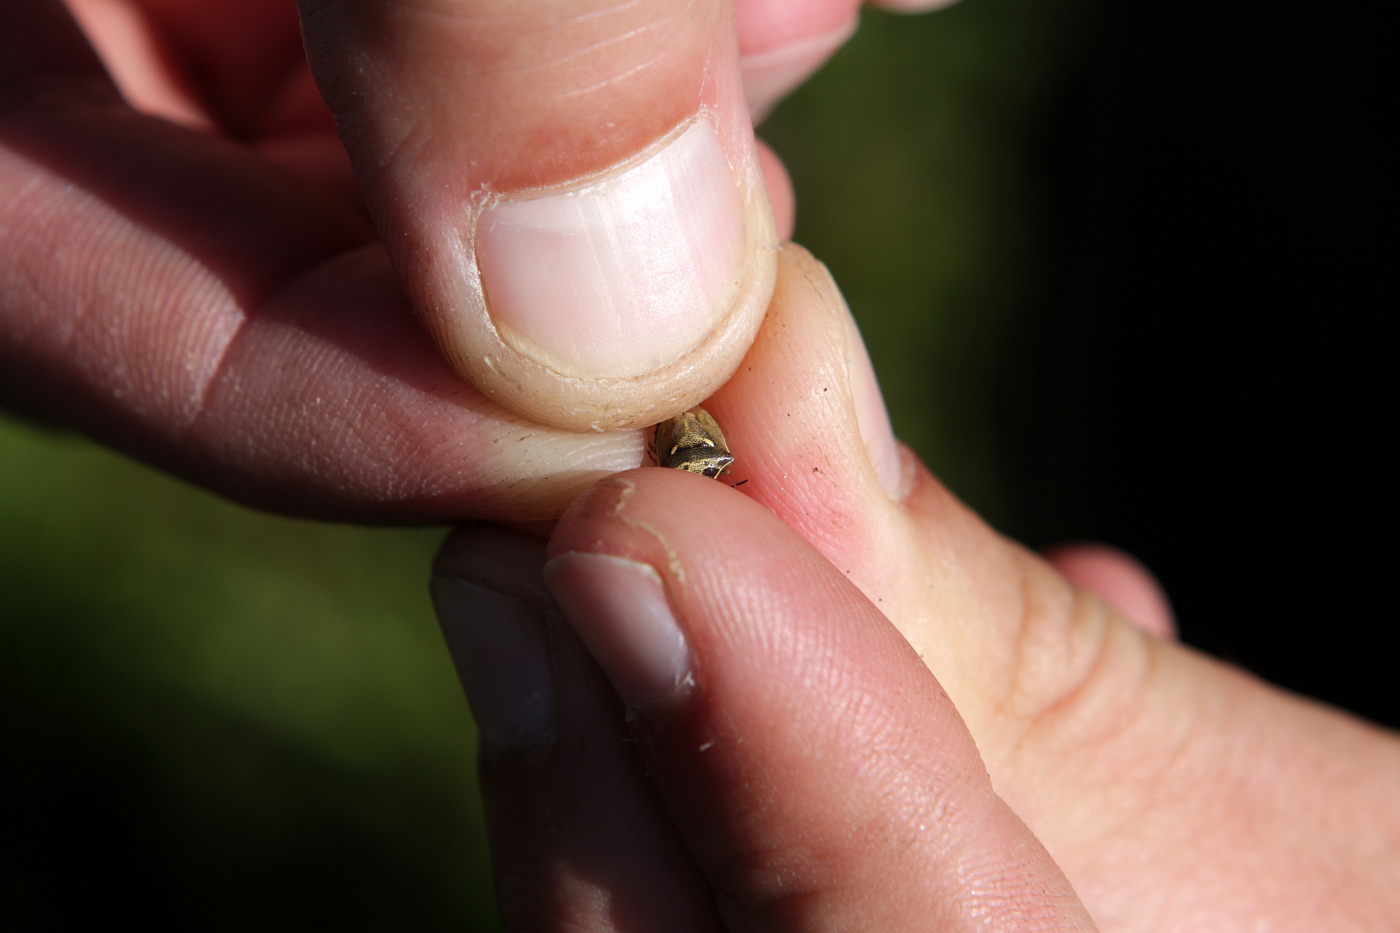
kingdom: Animalia
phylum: Arthropoda
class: Insecta
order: Hemiptera
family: Pentatomidae
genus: Eysarcoris
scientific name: Eysarcoris aeneus
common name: New forest shieldbug
